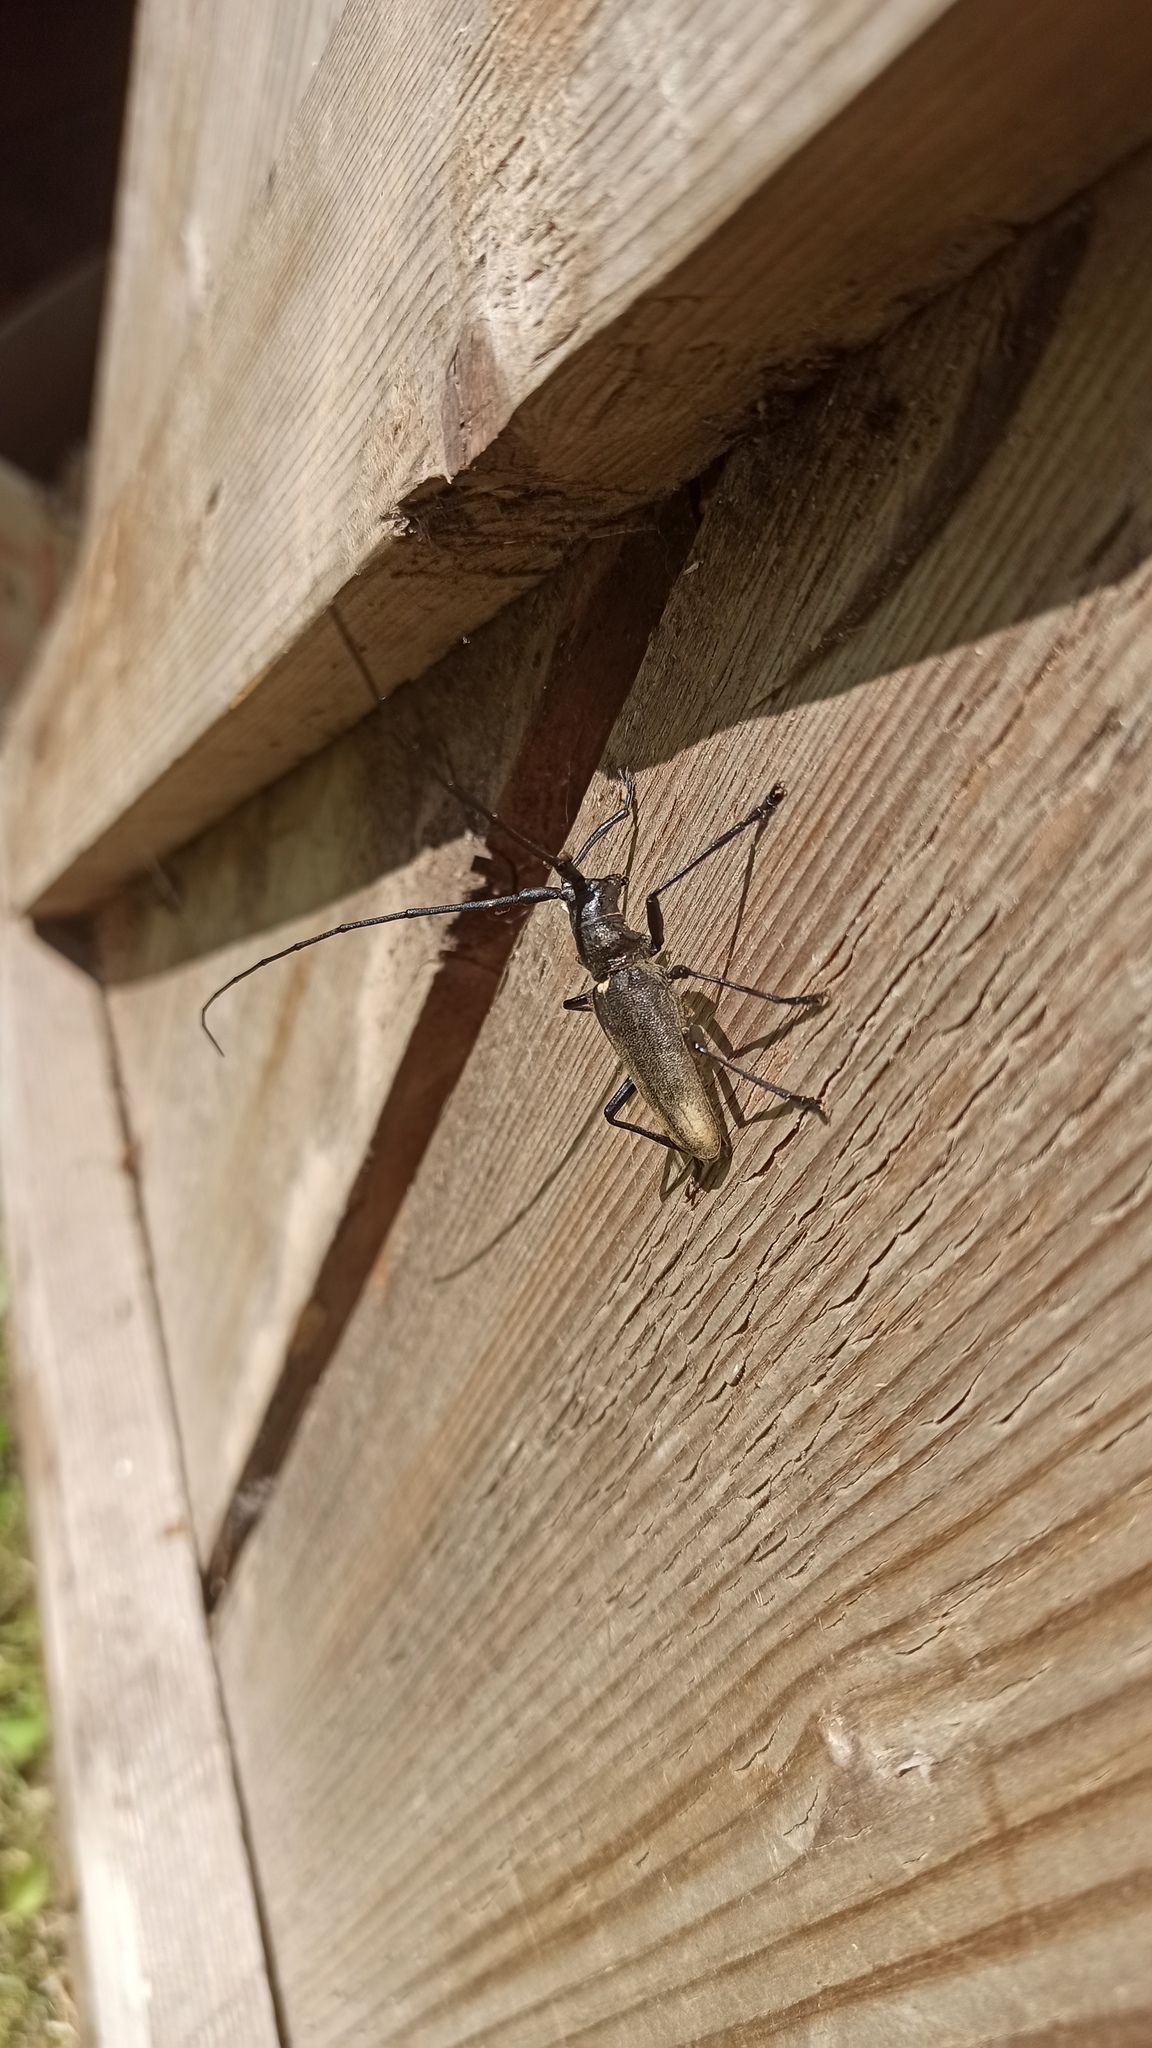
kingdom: Animalia
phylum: Arthropoda
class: Insecta
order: Coleoptera
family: Cerambycidae
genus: Monochamus
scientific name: Monochamus sartor
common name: Pine sawyer
